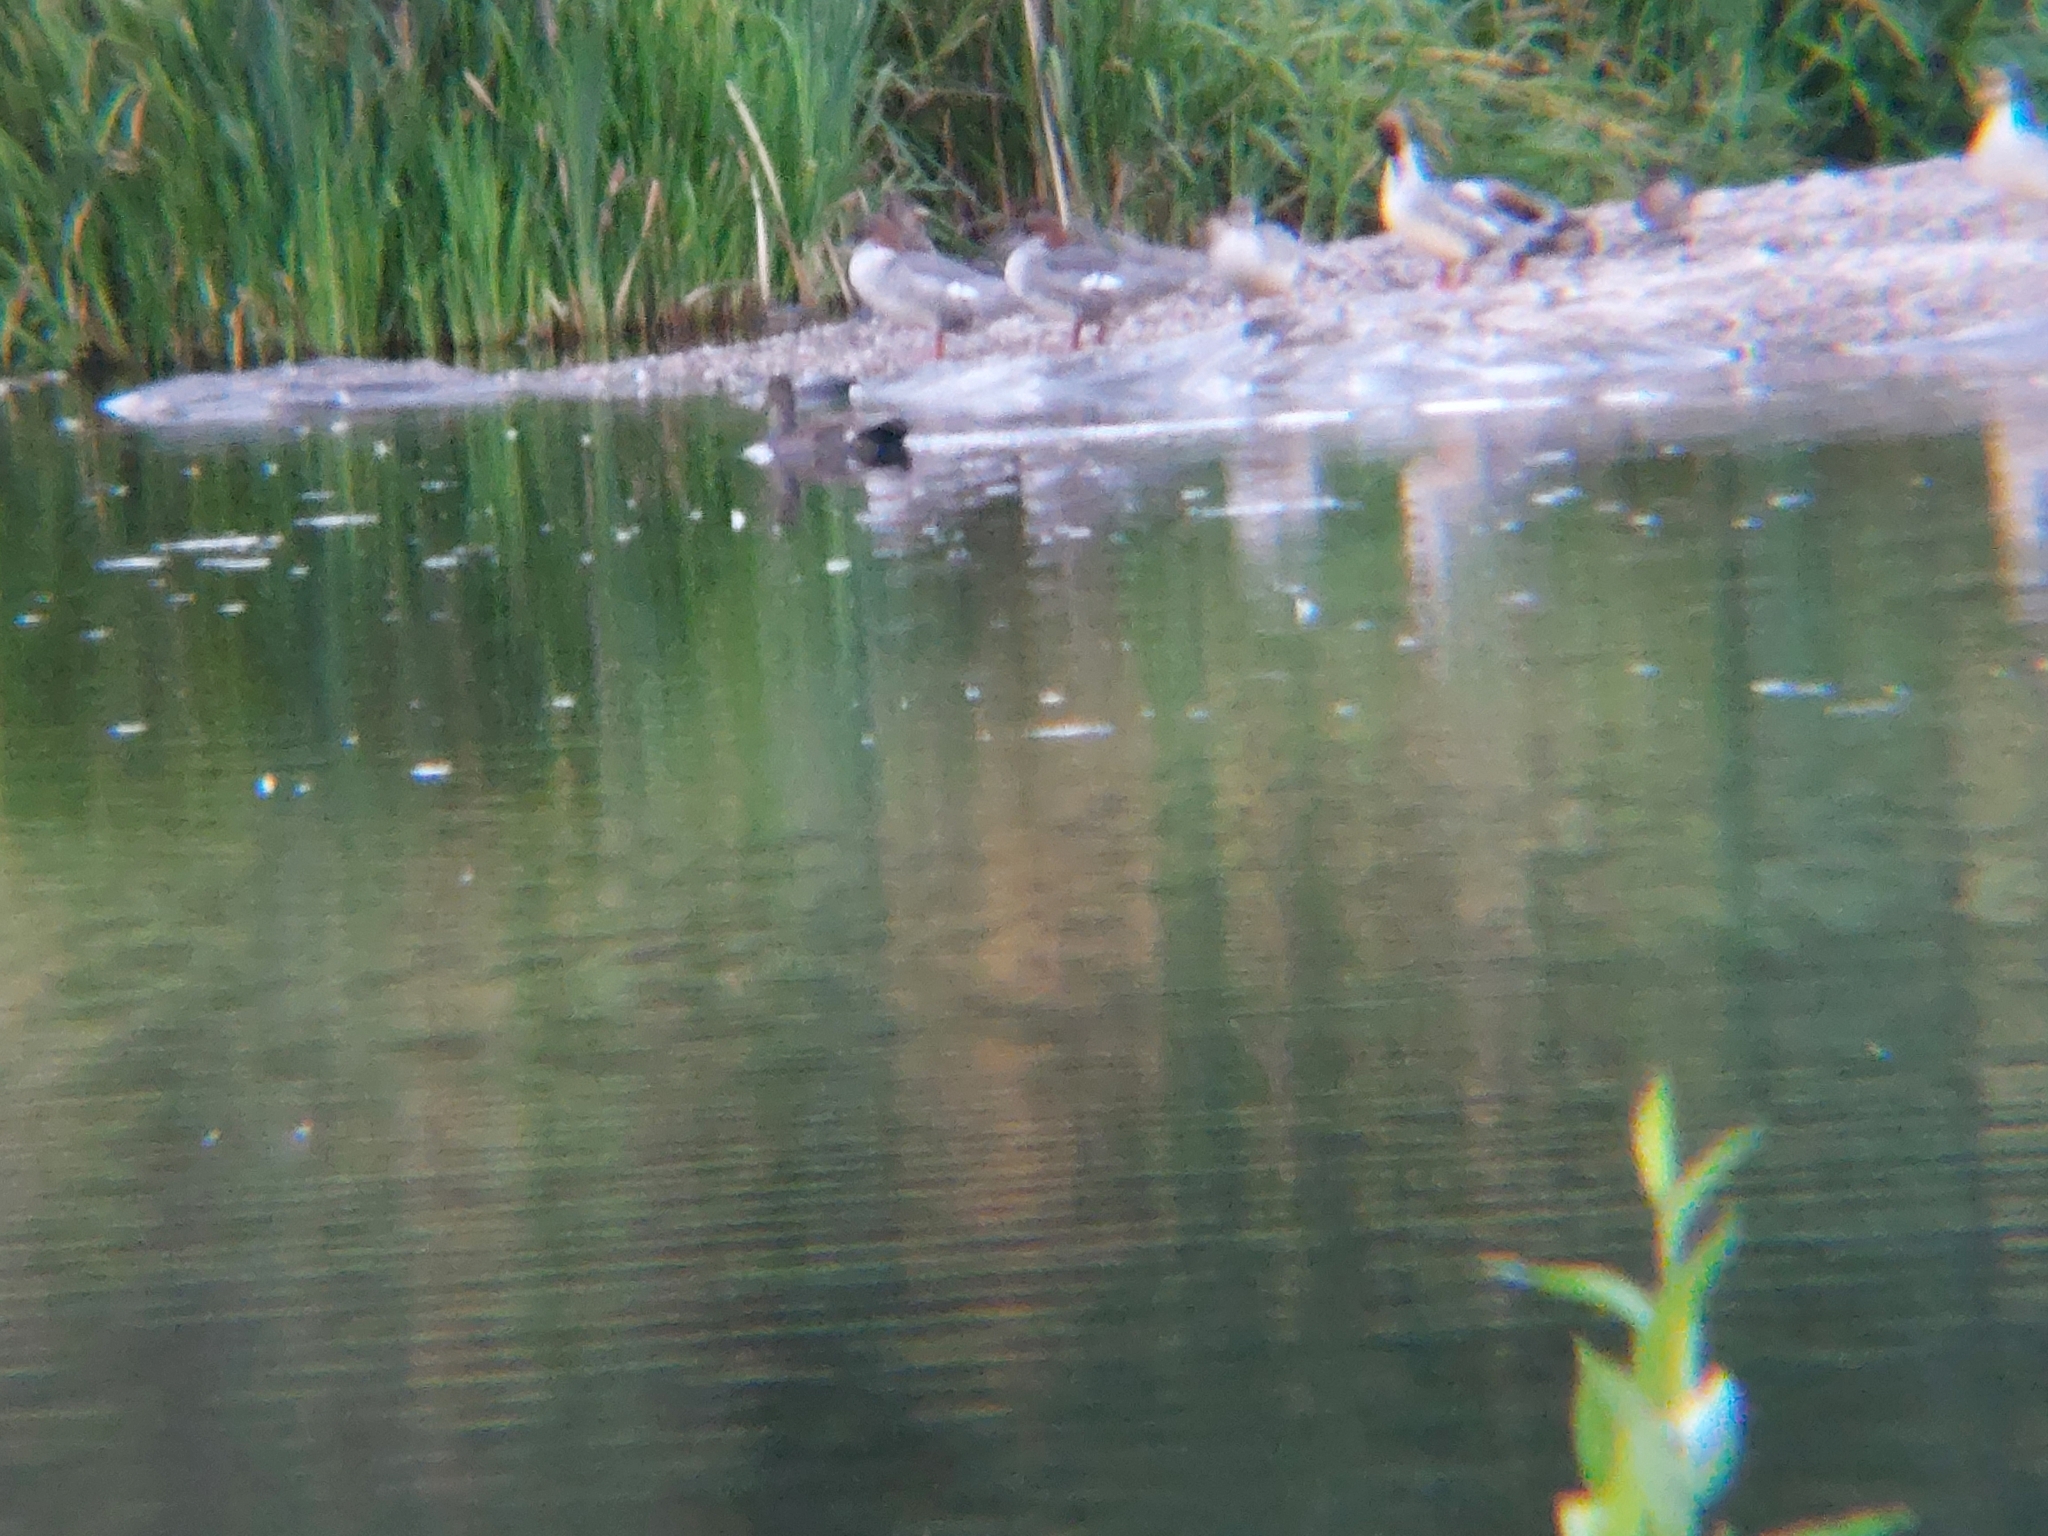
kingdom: Animalia
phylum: Chordata
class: Aves
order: Anseriformes
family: Anatidae
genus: Mergus
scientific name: Mergus merganser
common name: Common merganser
